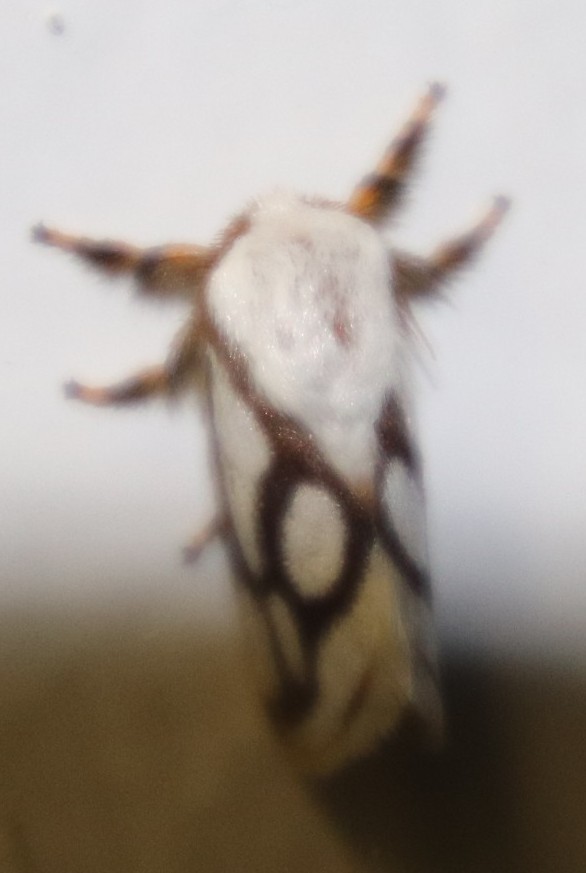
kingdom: Animalia
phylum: Arthropoda
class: Insecta
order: Lepidoptera
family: Limacodidae
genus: Parapluda
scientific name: Parapluda invitabilis
